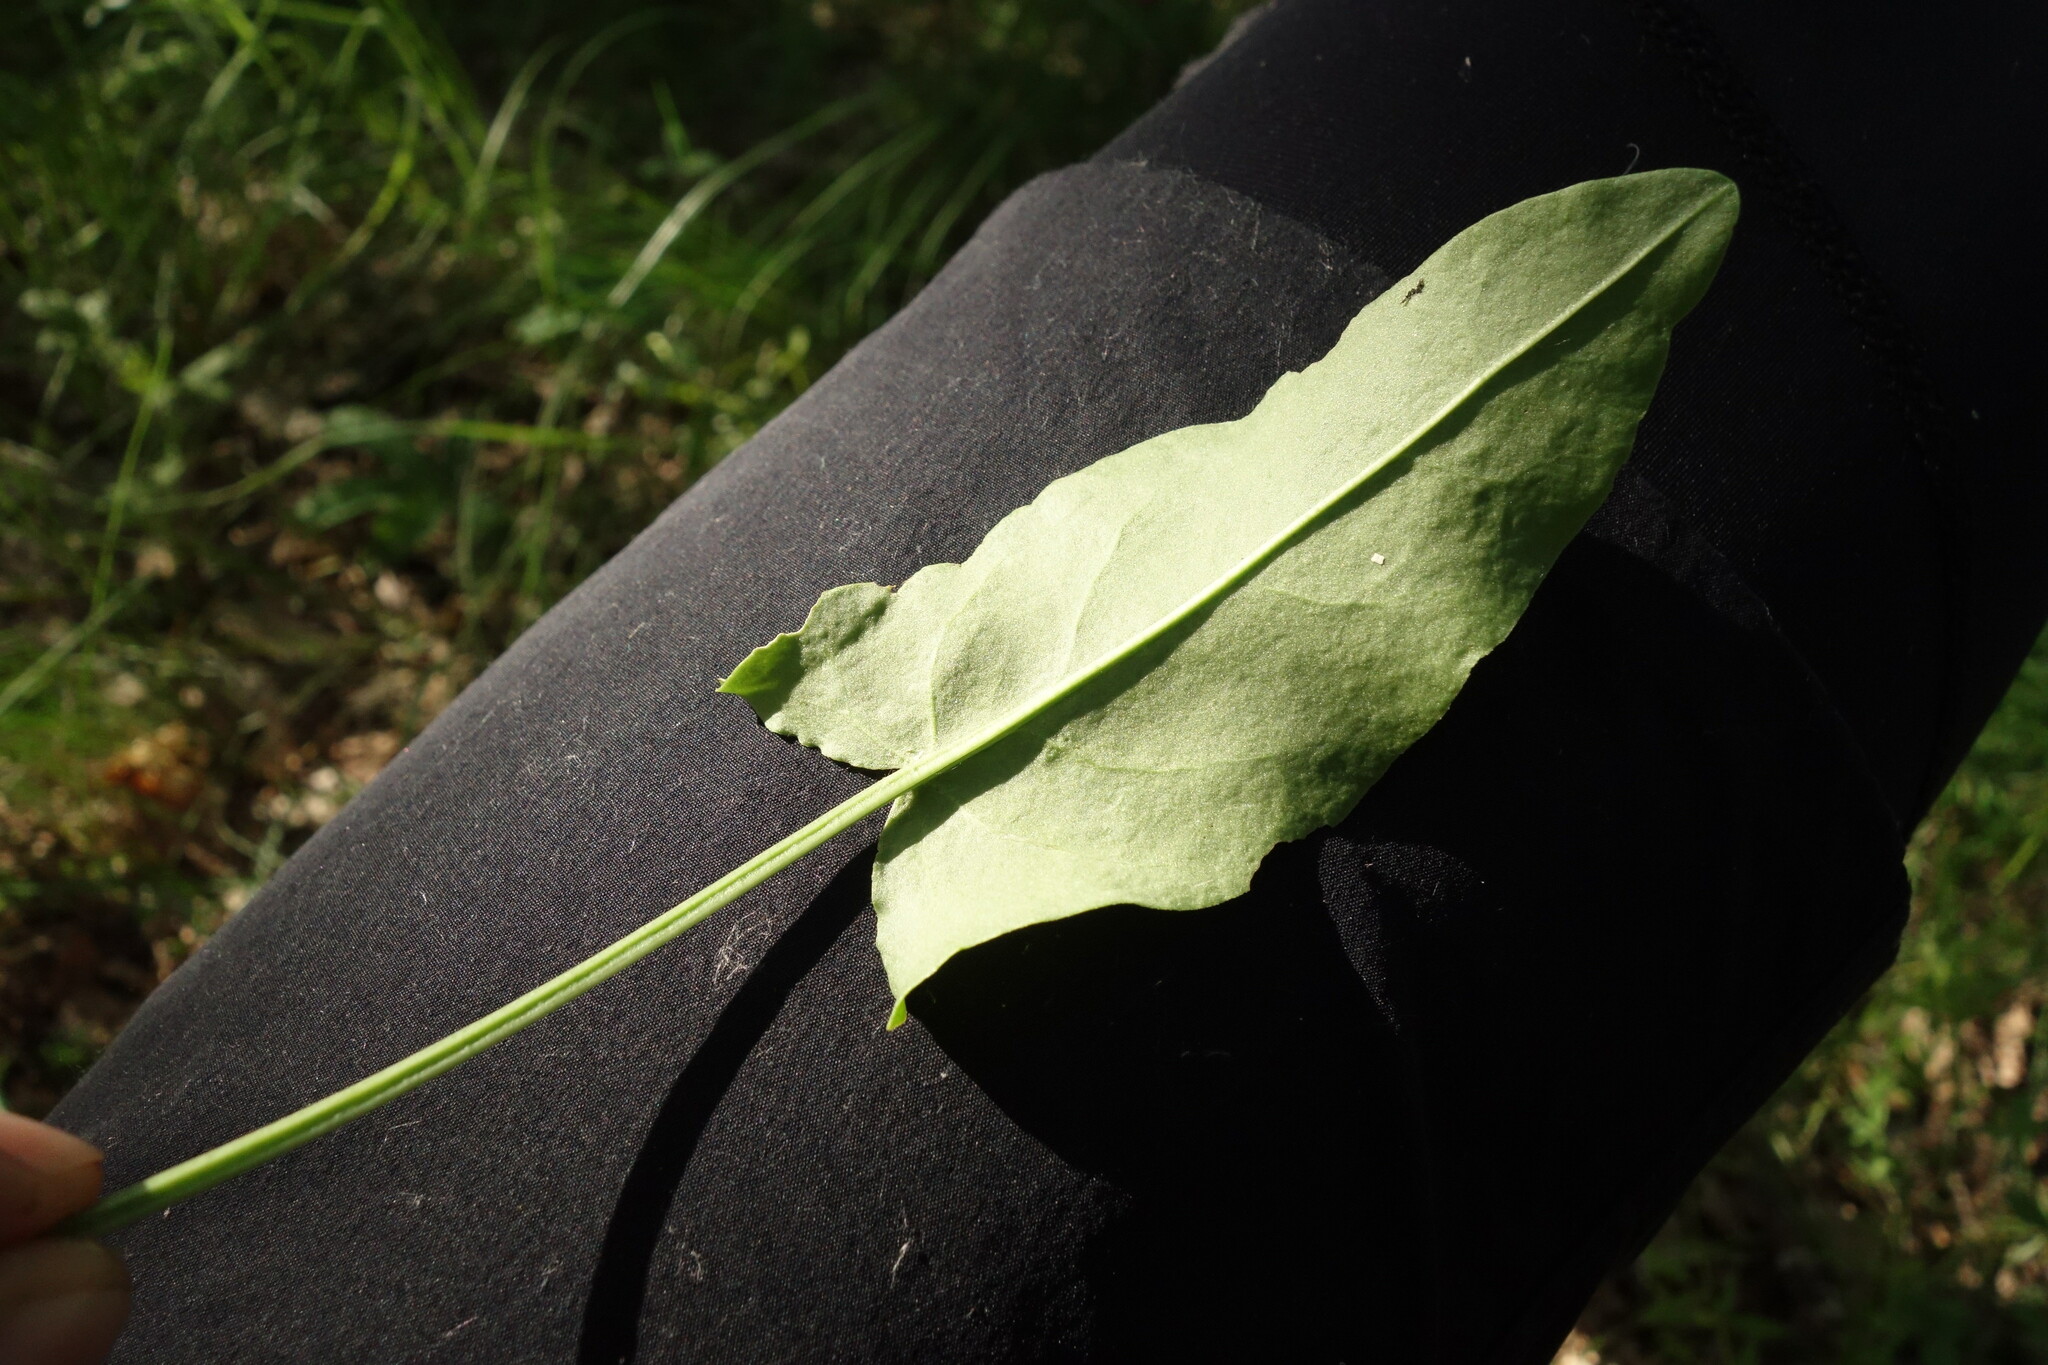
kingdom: Plantae
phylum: Tracheophyta
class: Magnoliopsida
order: Caryophyllales
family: Polygonaceae
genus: Rumex
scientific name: Rumex acetosa
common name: Garden sorrel
